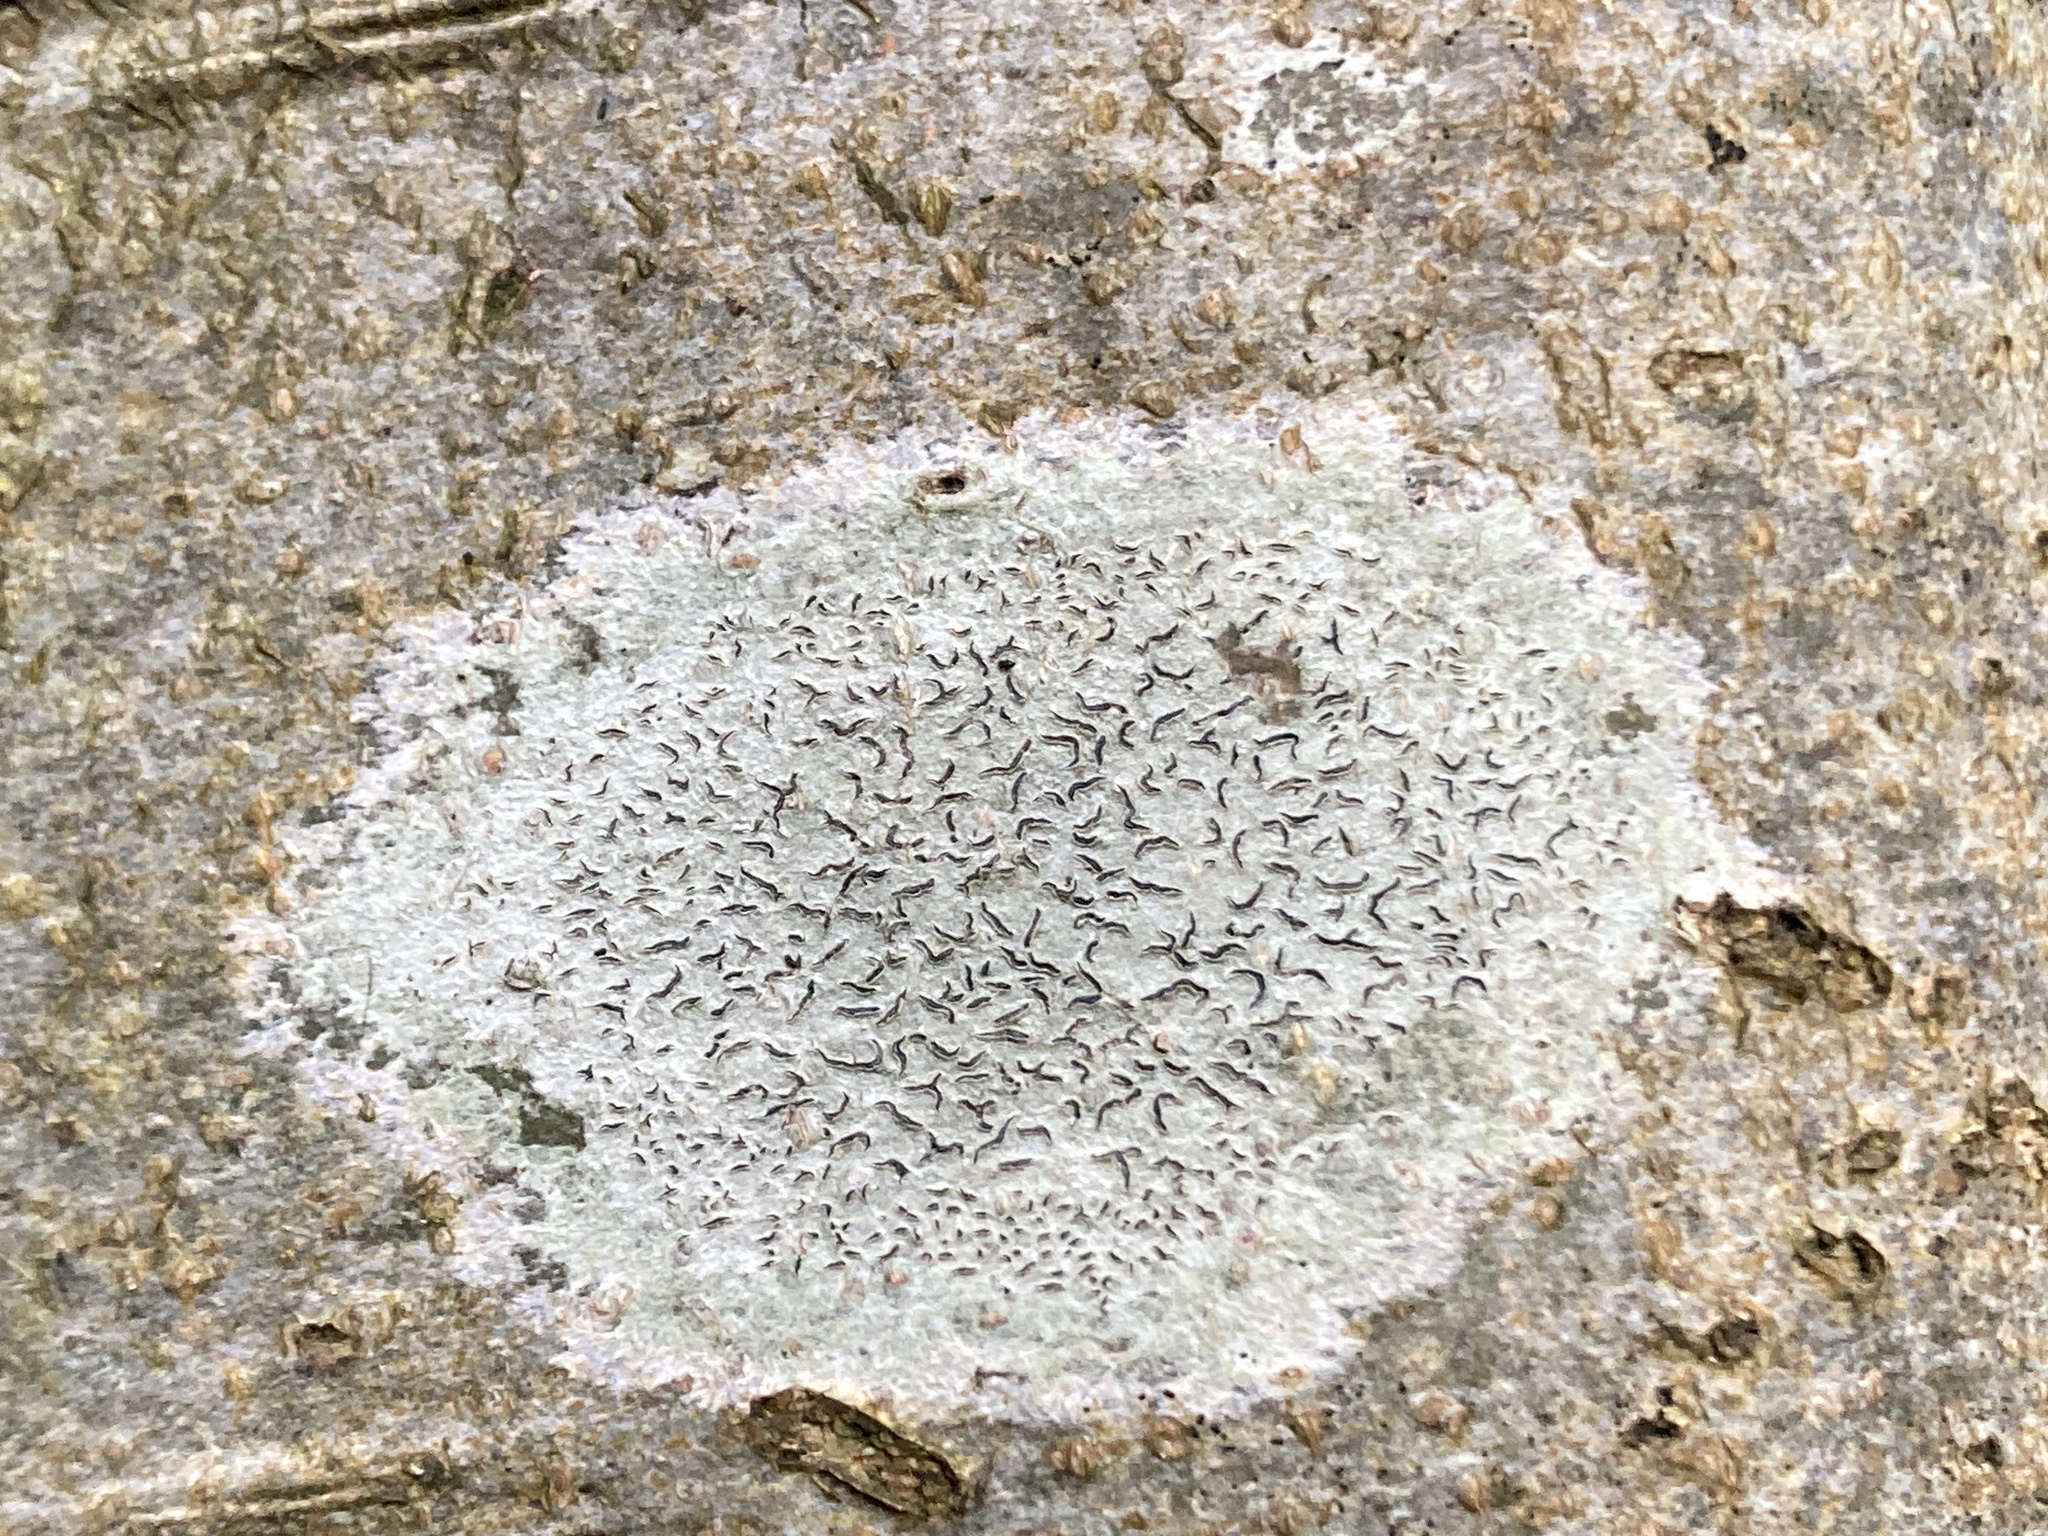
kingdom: Fungi
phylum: Ascomycota
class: Lecanoromycetes
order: Ostropales
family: Graphidaceae
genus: Graphis
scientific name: Graphis scripta
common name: Script lichen
